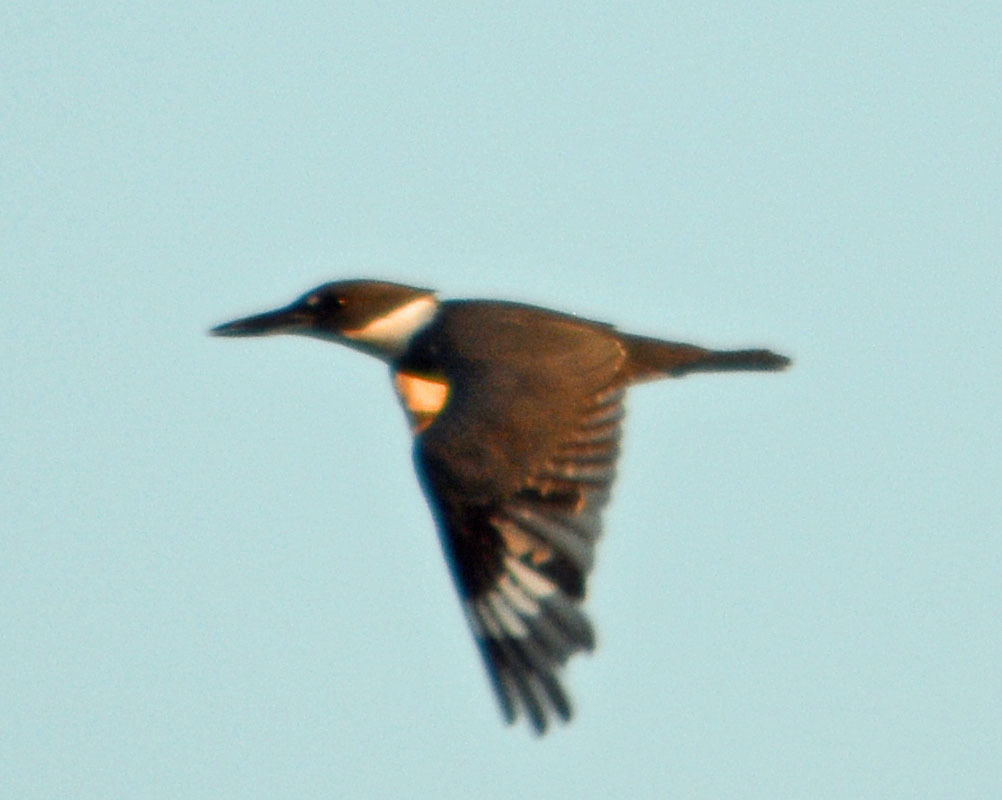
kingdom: Animalia
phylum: Chordata
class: Aves
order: Coraciiformes
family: Alcedinidae
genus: Megaceryle
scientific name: Megaceryle alcyon
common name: Belted kingfisher
